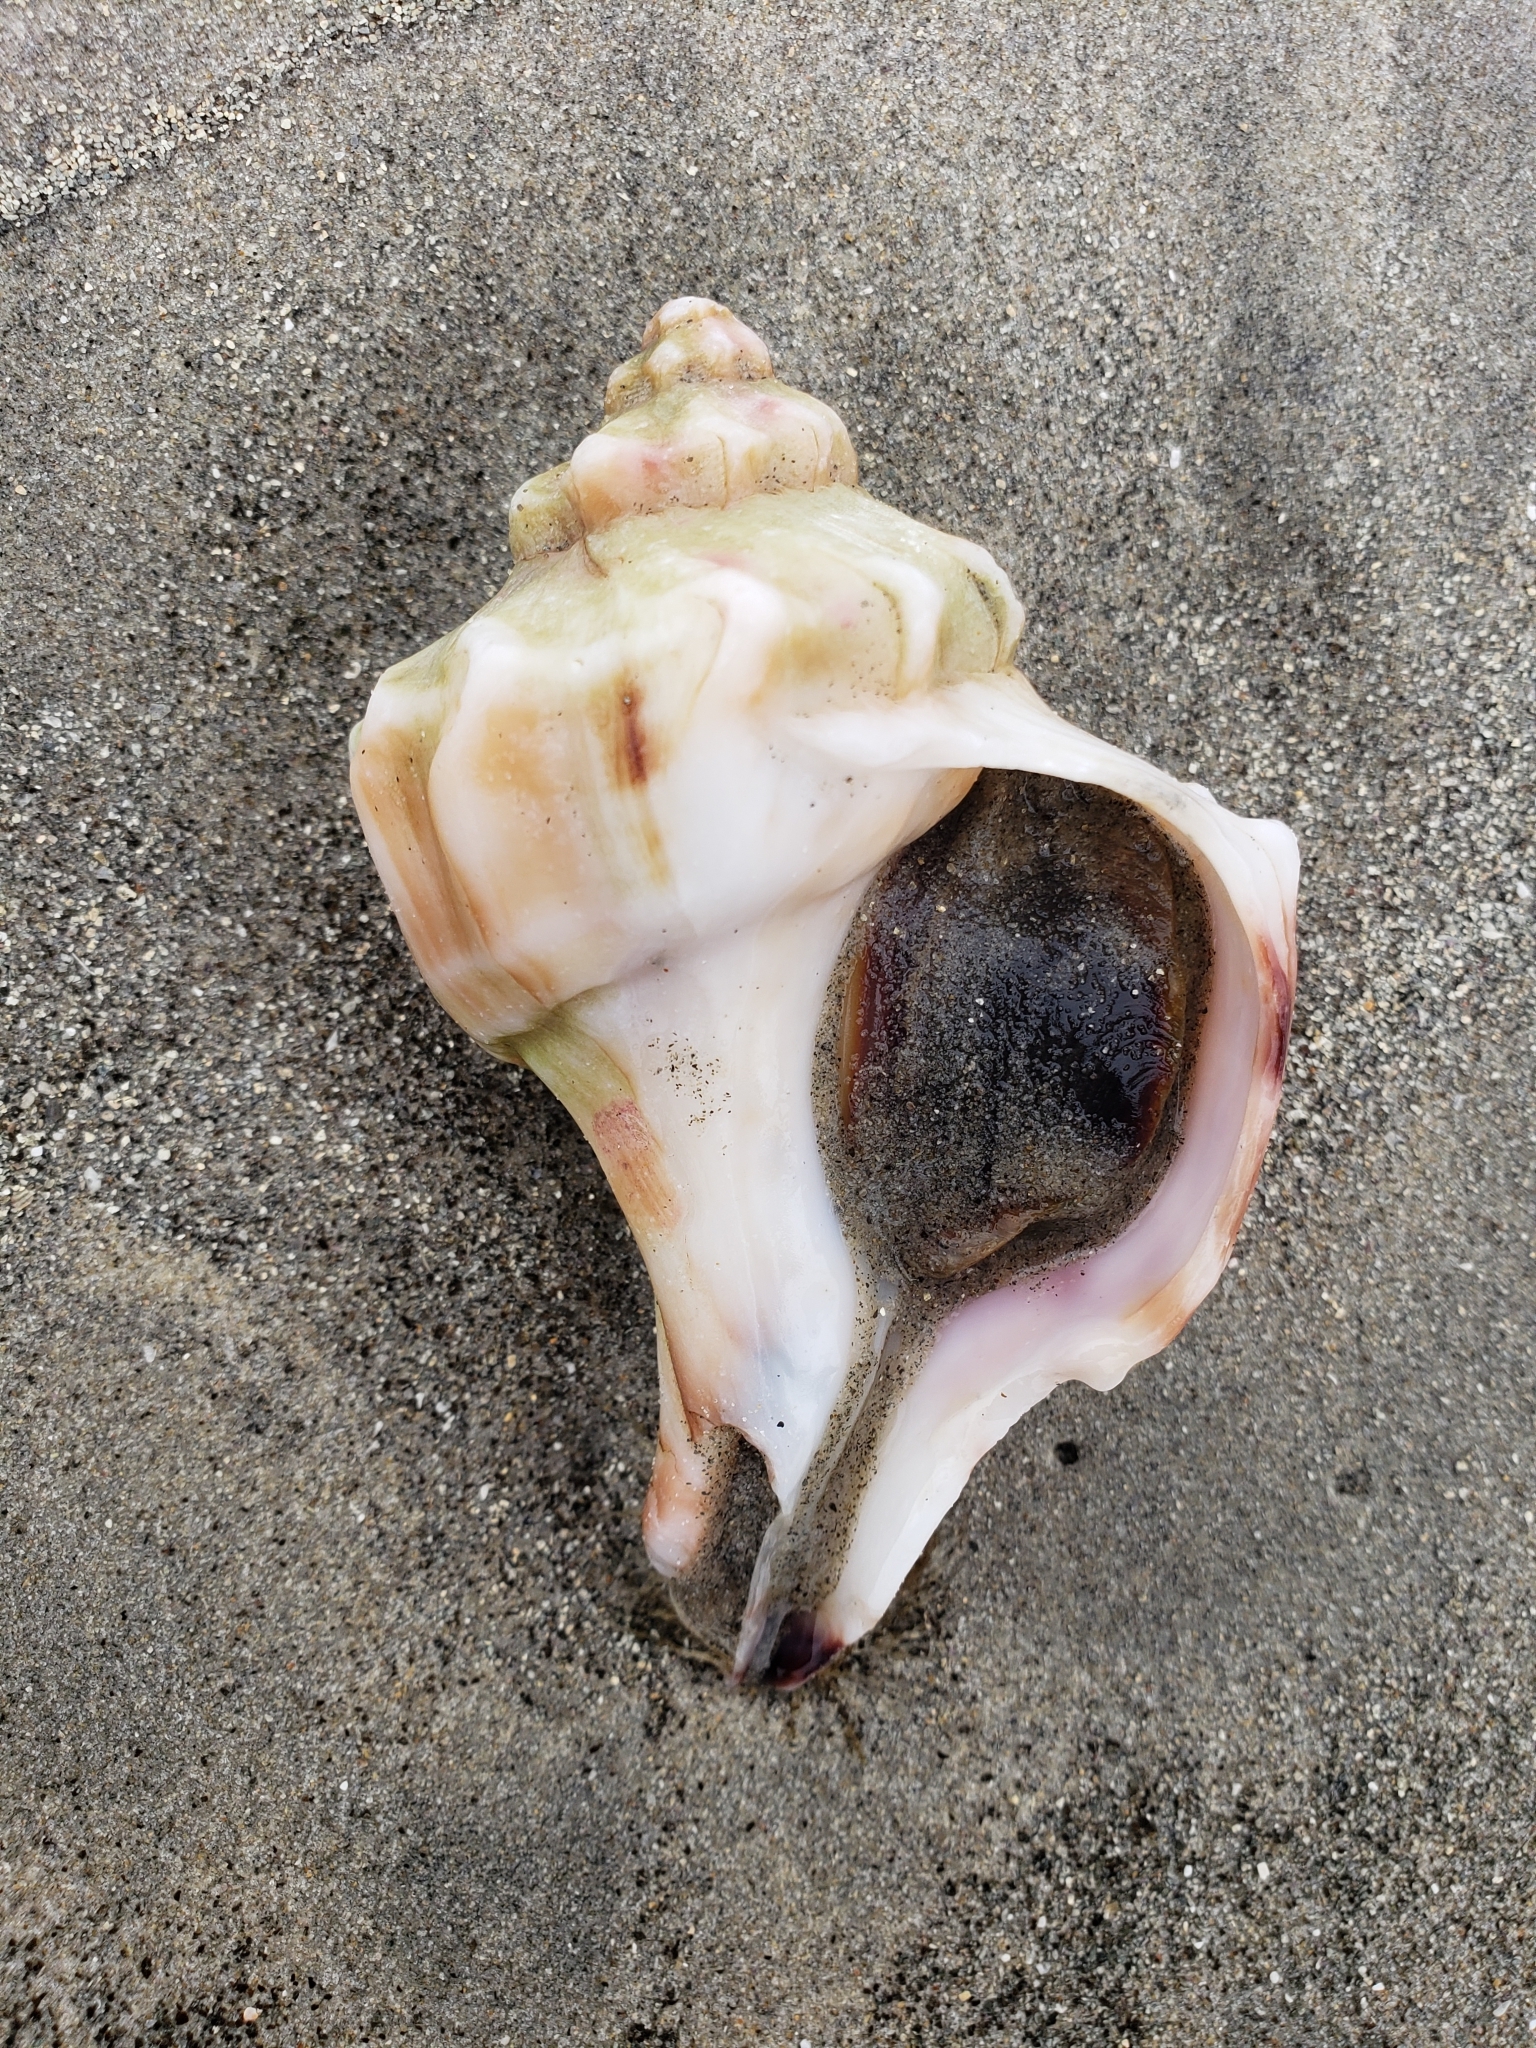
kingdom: Animalia
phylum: Mollusca
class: Gastropoda
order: Neogastropoda
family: Muricidae
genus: Forreria
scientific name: Forreria belcheri
